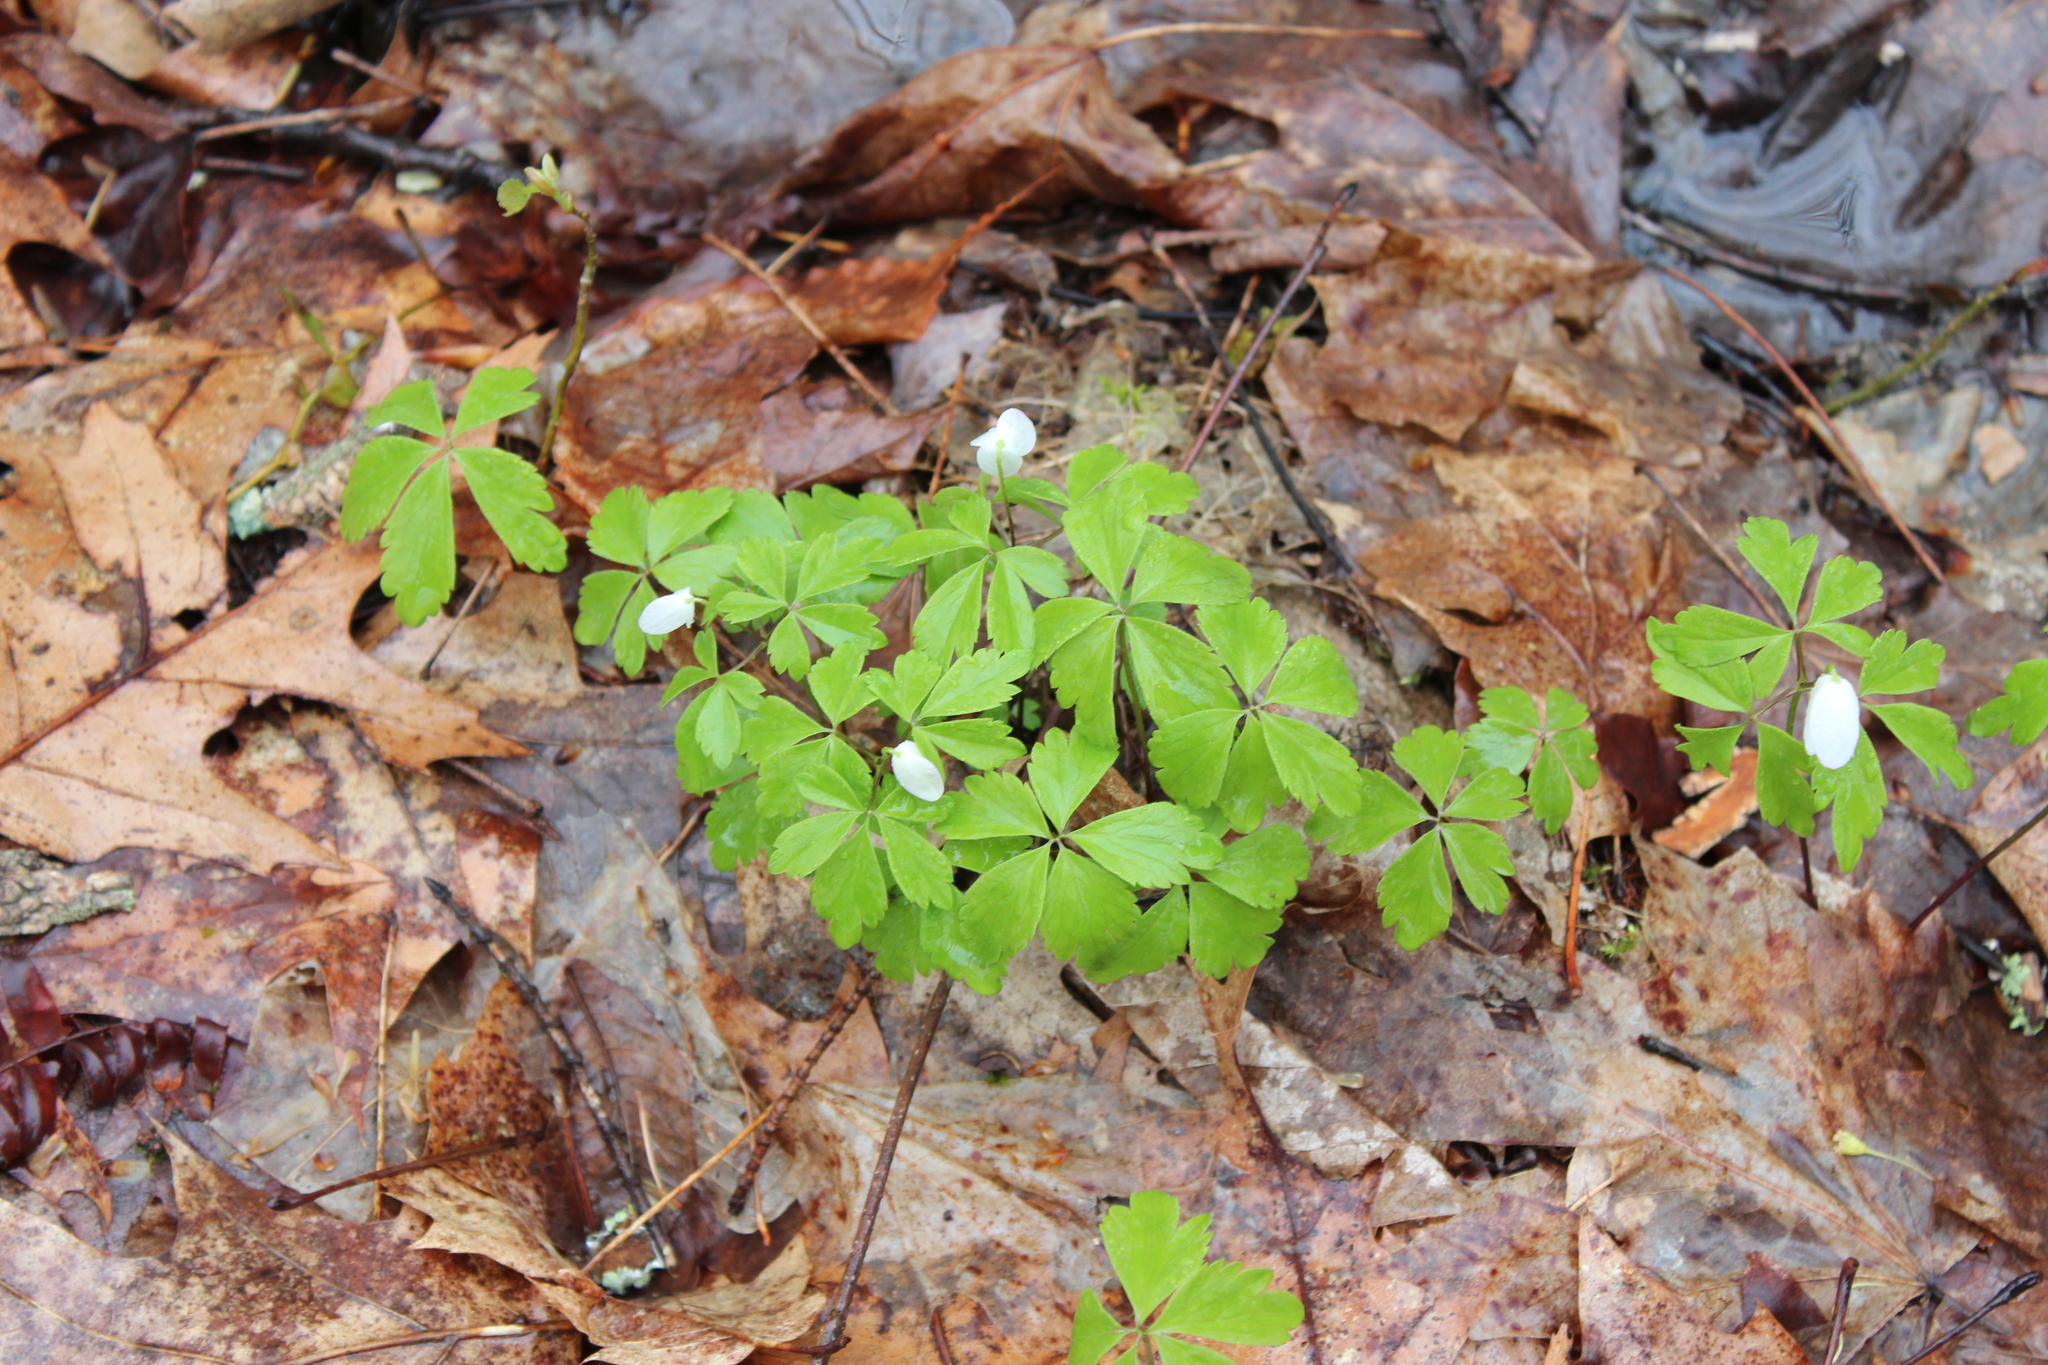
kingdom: Plantae
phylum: Tracheophyta
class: Magnoliopsida
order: Ranunculales
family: Ranunculaceae
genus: Anemone
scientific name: Anemone quinquefolia
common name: Wood anemone
